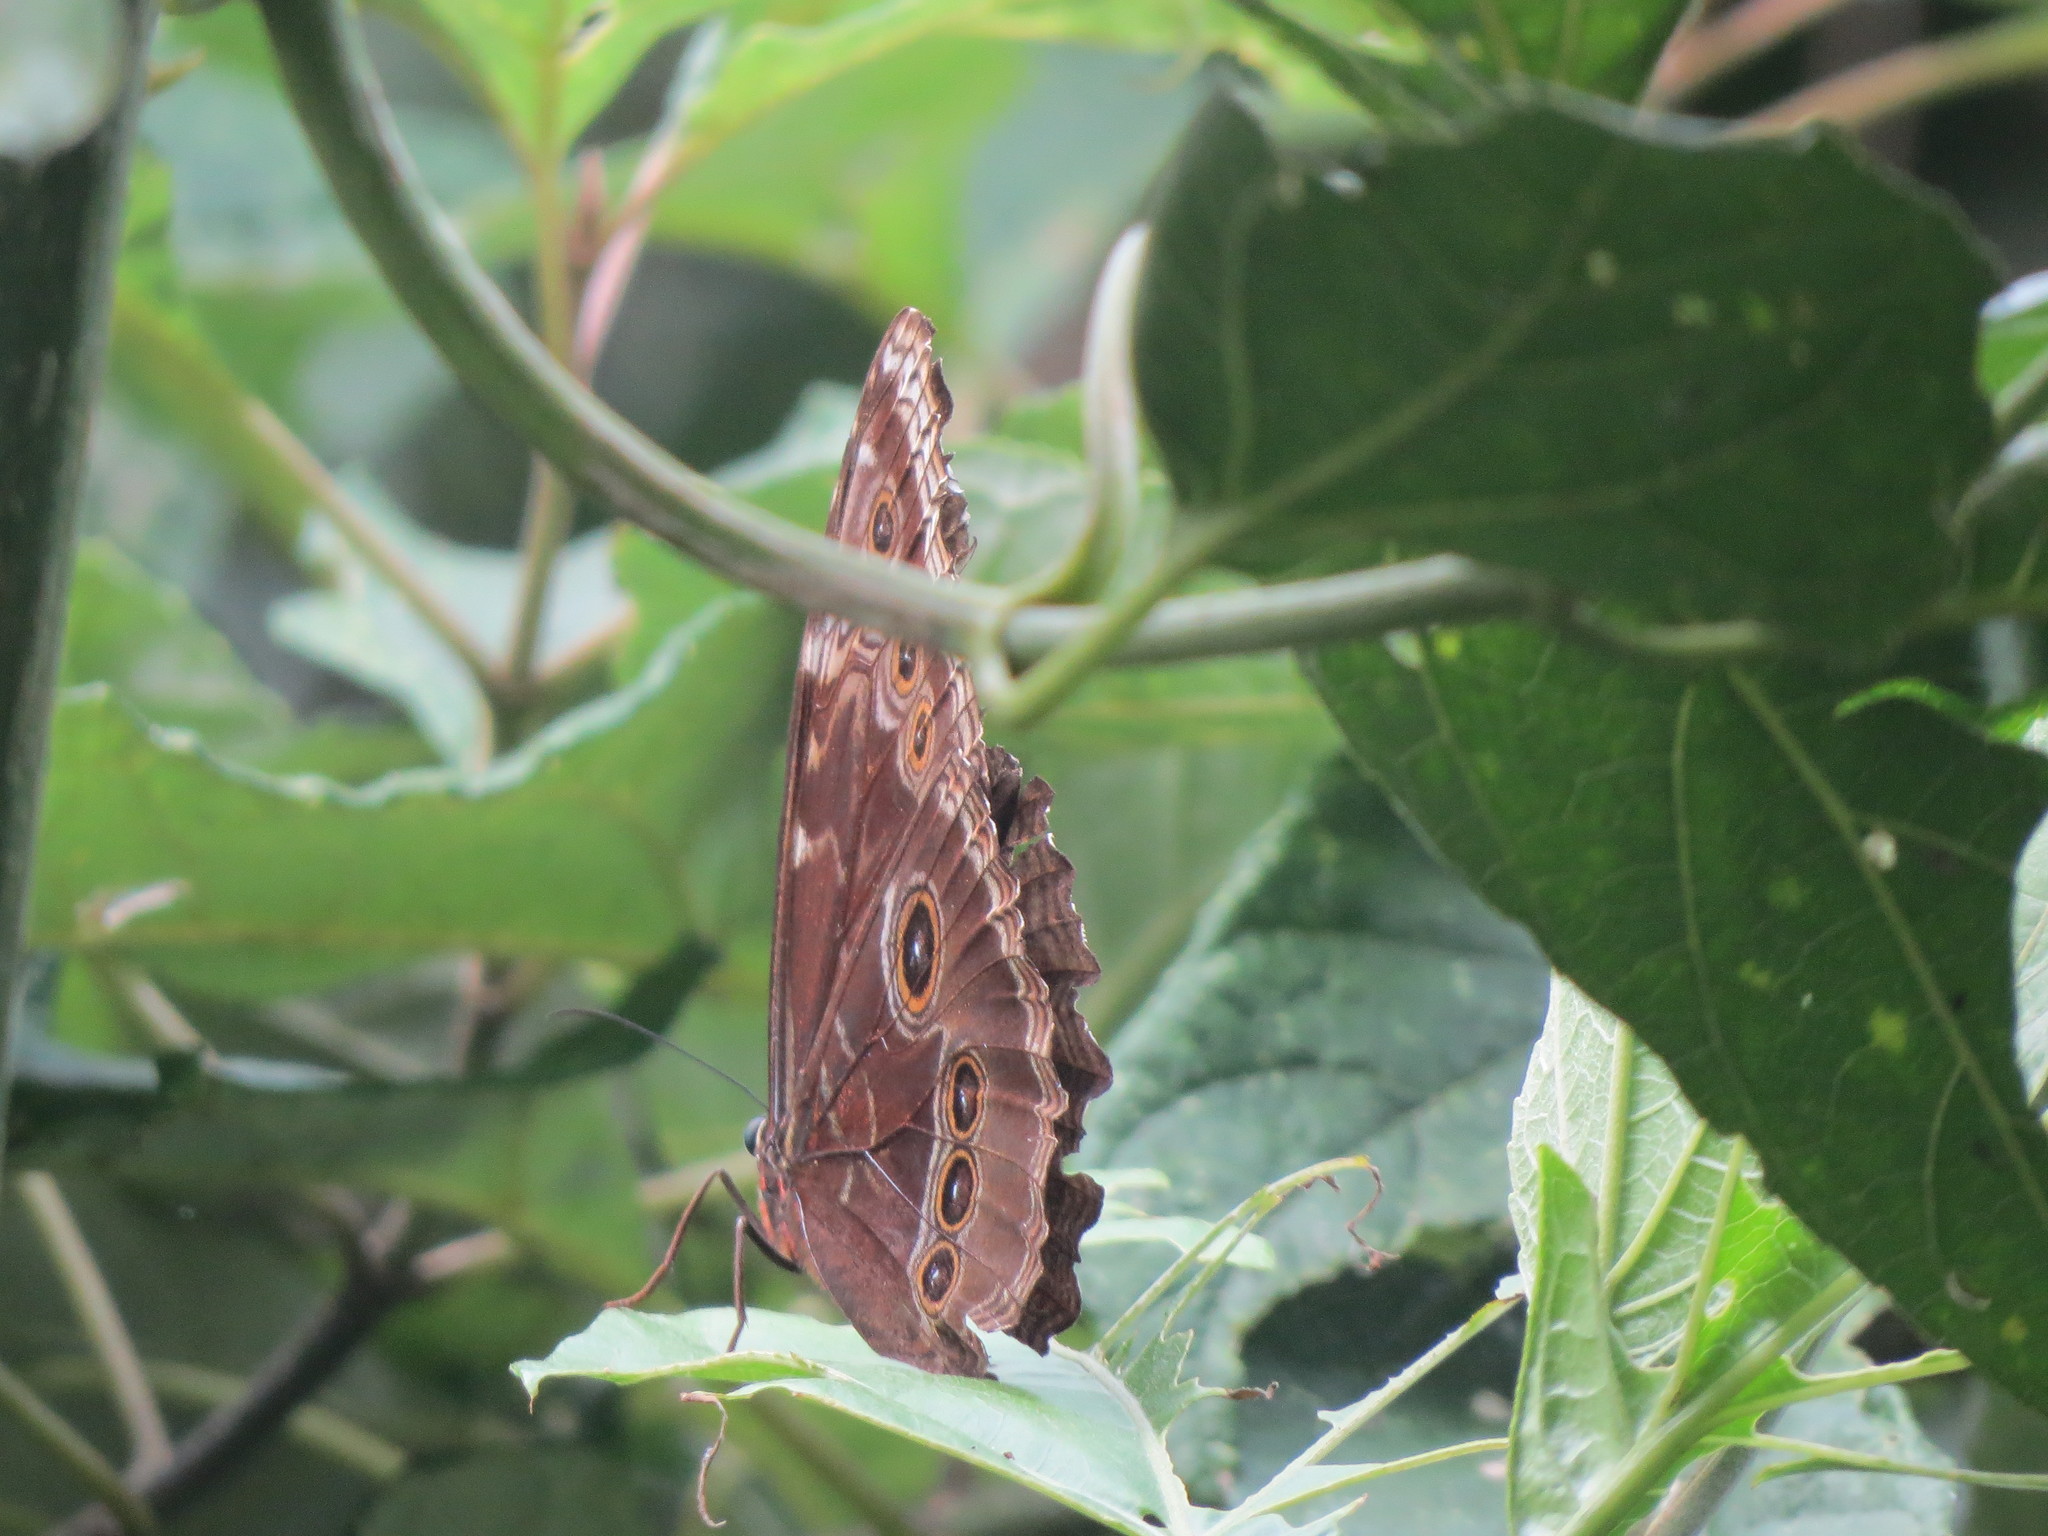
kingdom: Animalia
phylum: Arthropoda
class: Insecta
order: Lepidoptera
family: Nymphalidae
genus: Morpho
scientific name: Morpho helenor
